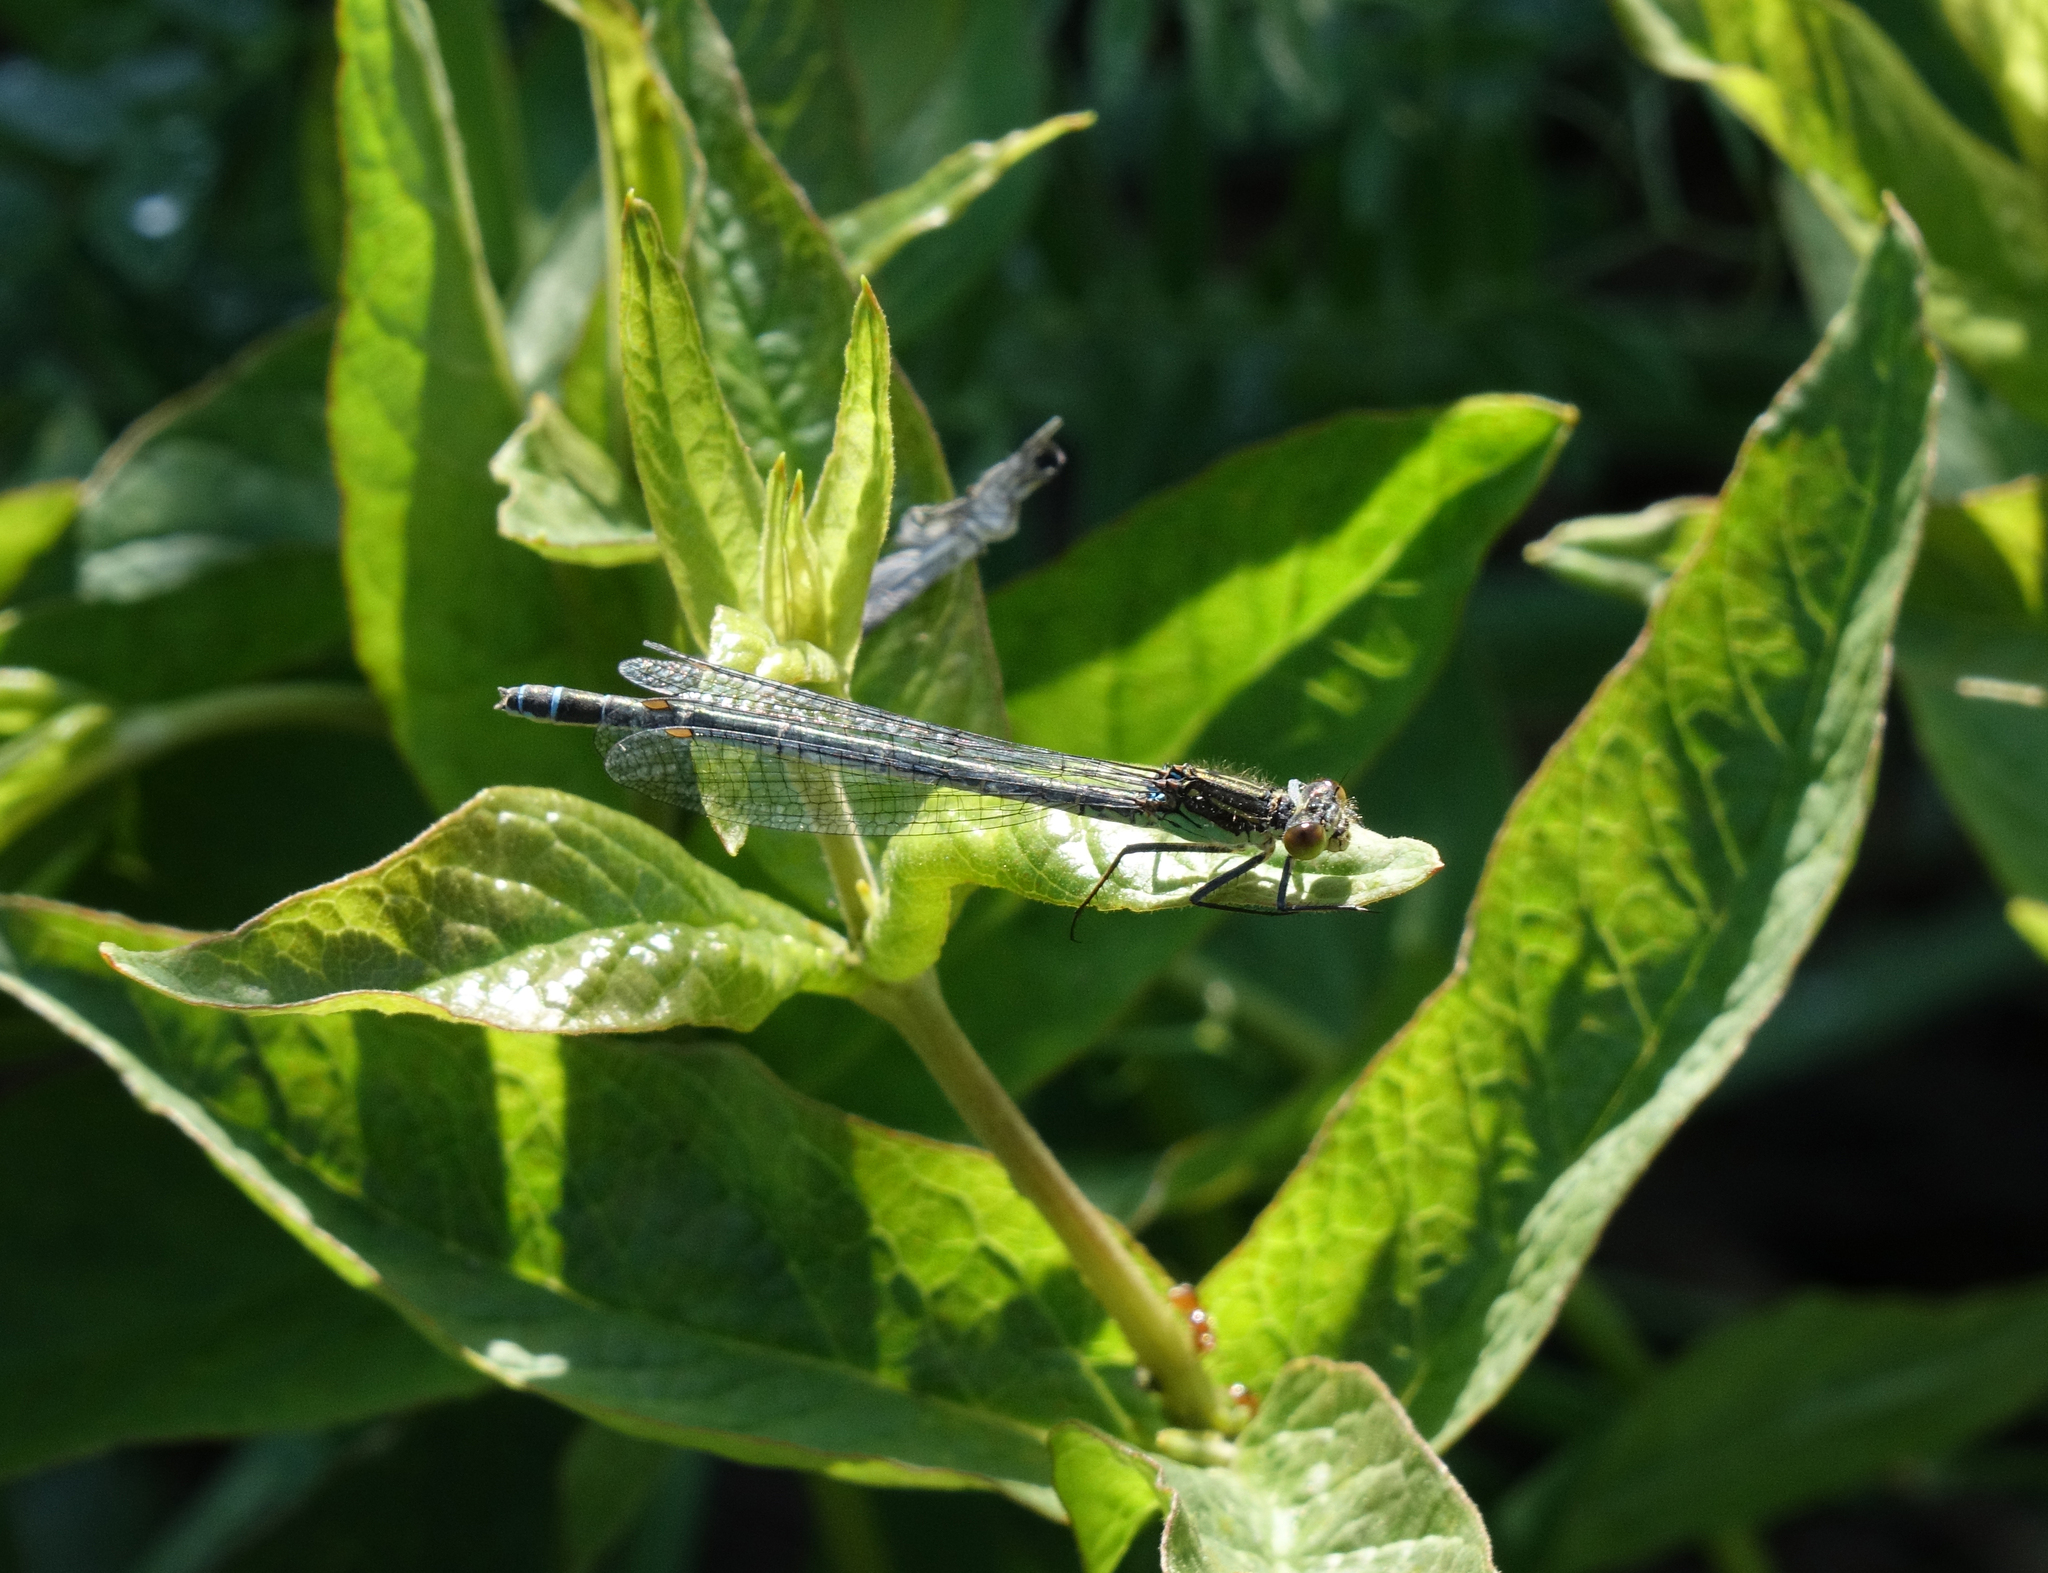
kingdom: Animalia
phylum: Arthropoda
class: Insecta
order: Odonata
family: Coenagrionidae
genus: Erythromma
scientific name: Erythromma najas
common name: Red-eyed damselfly
